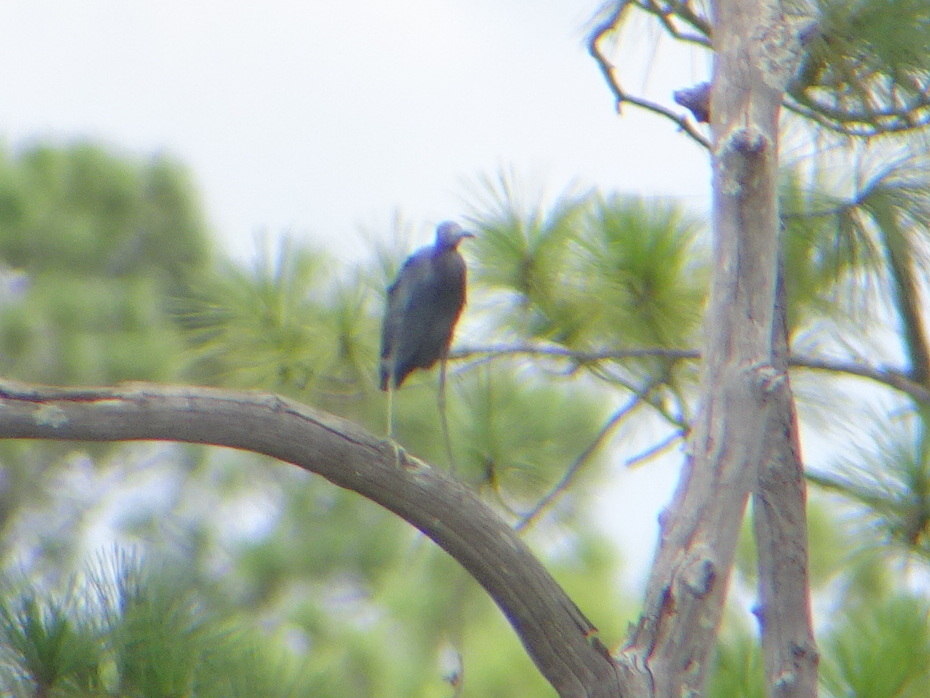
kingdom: Animalia
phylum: Chordata
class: Aves
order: Pelecaniformes
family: Ardeidae
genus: Egretta
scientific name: Egretta caerulea
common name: Little blue heron
